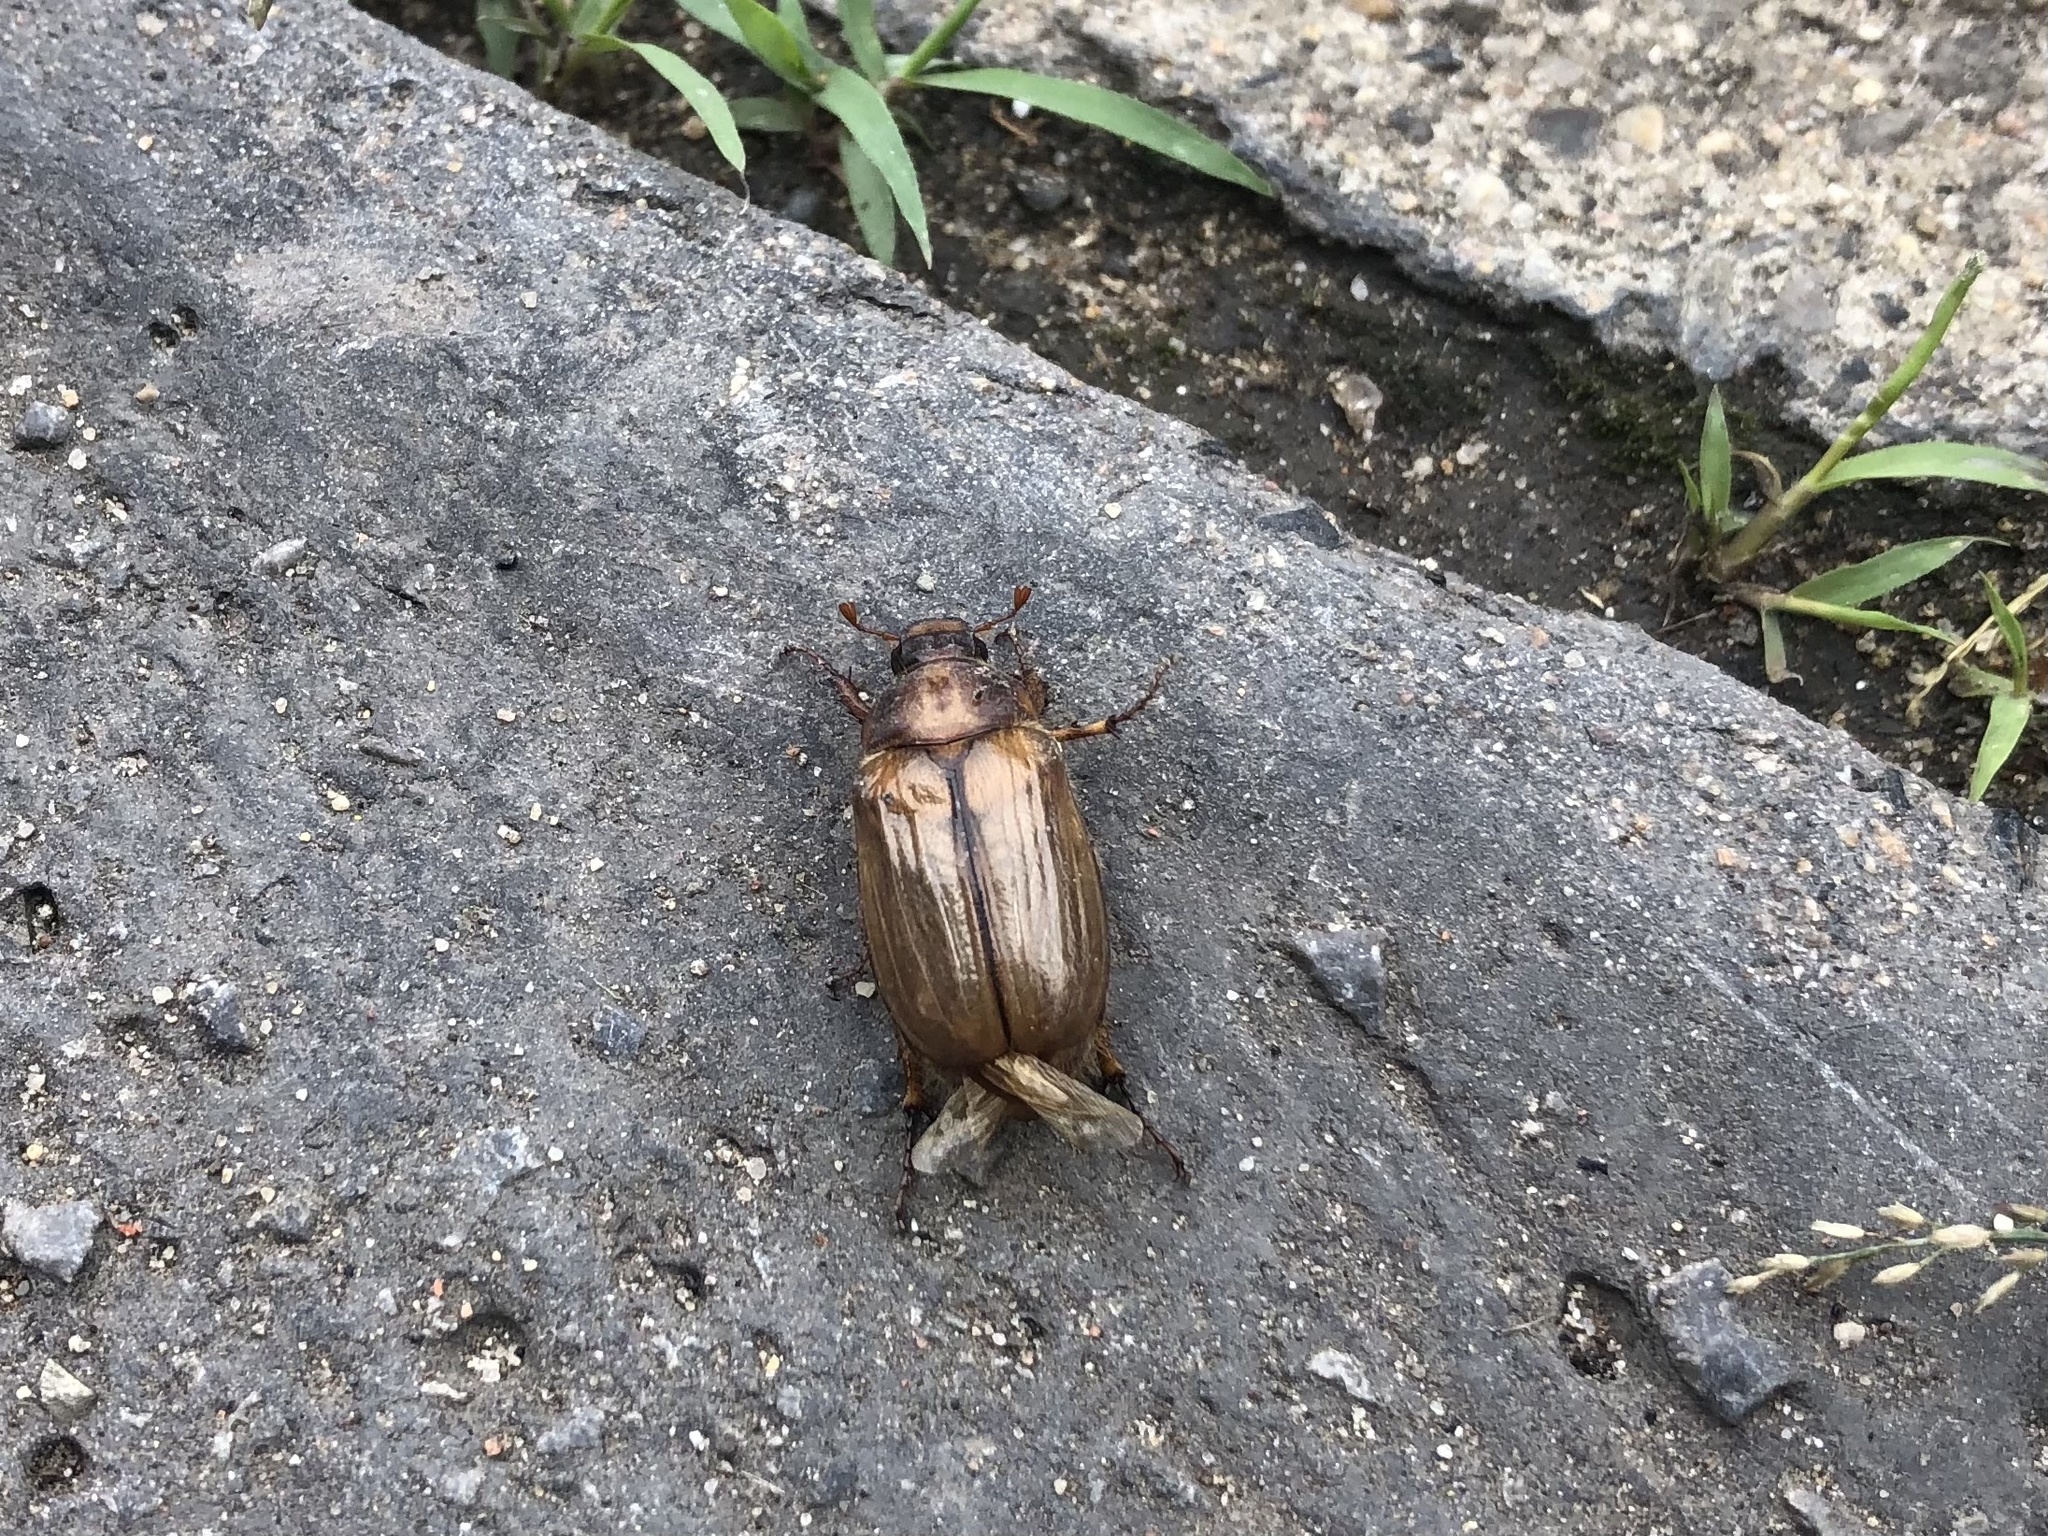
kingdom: Animalia
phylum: Arthropoda
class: Insecta
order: Coleoptera
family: Scarabaeidae
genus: Amphimallon
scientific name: Amphimallon solstitiale
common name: Summer chafer
